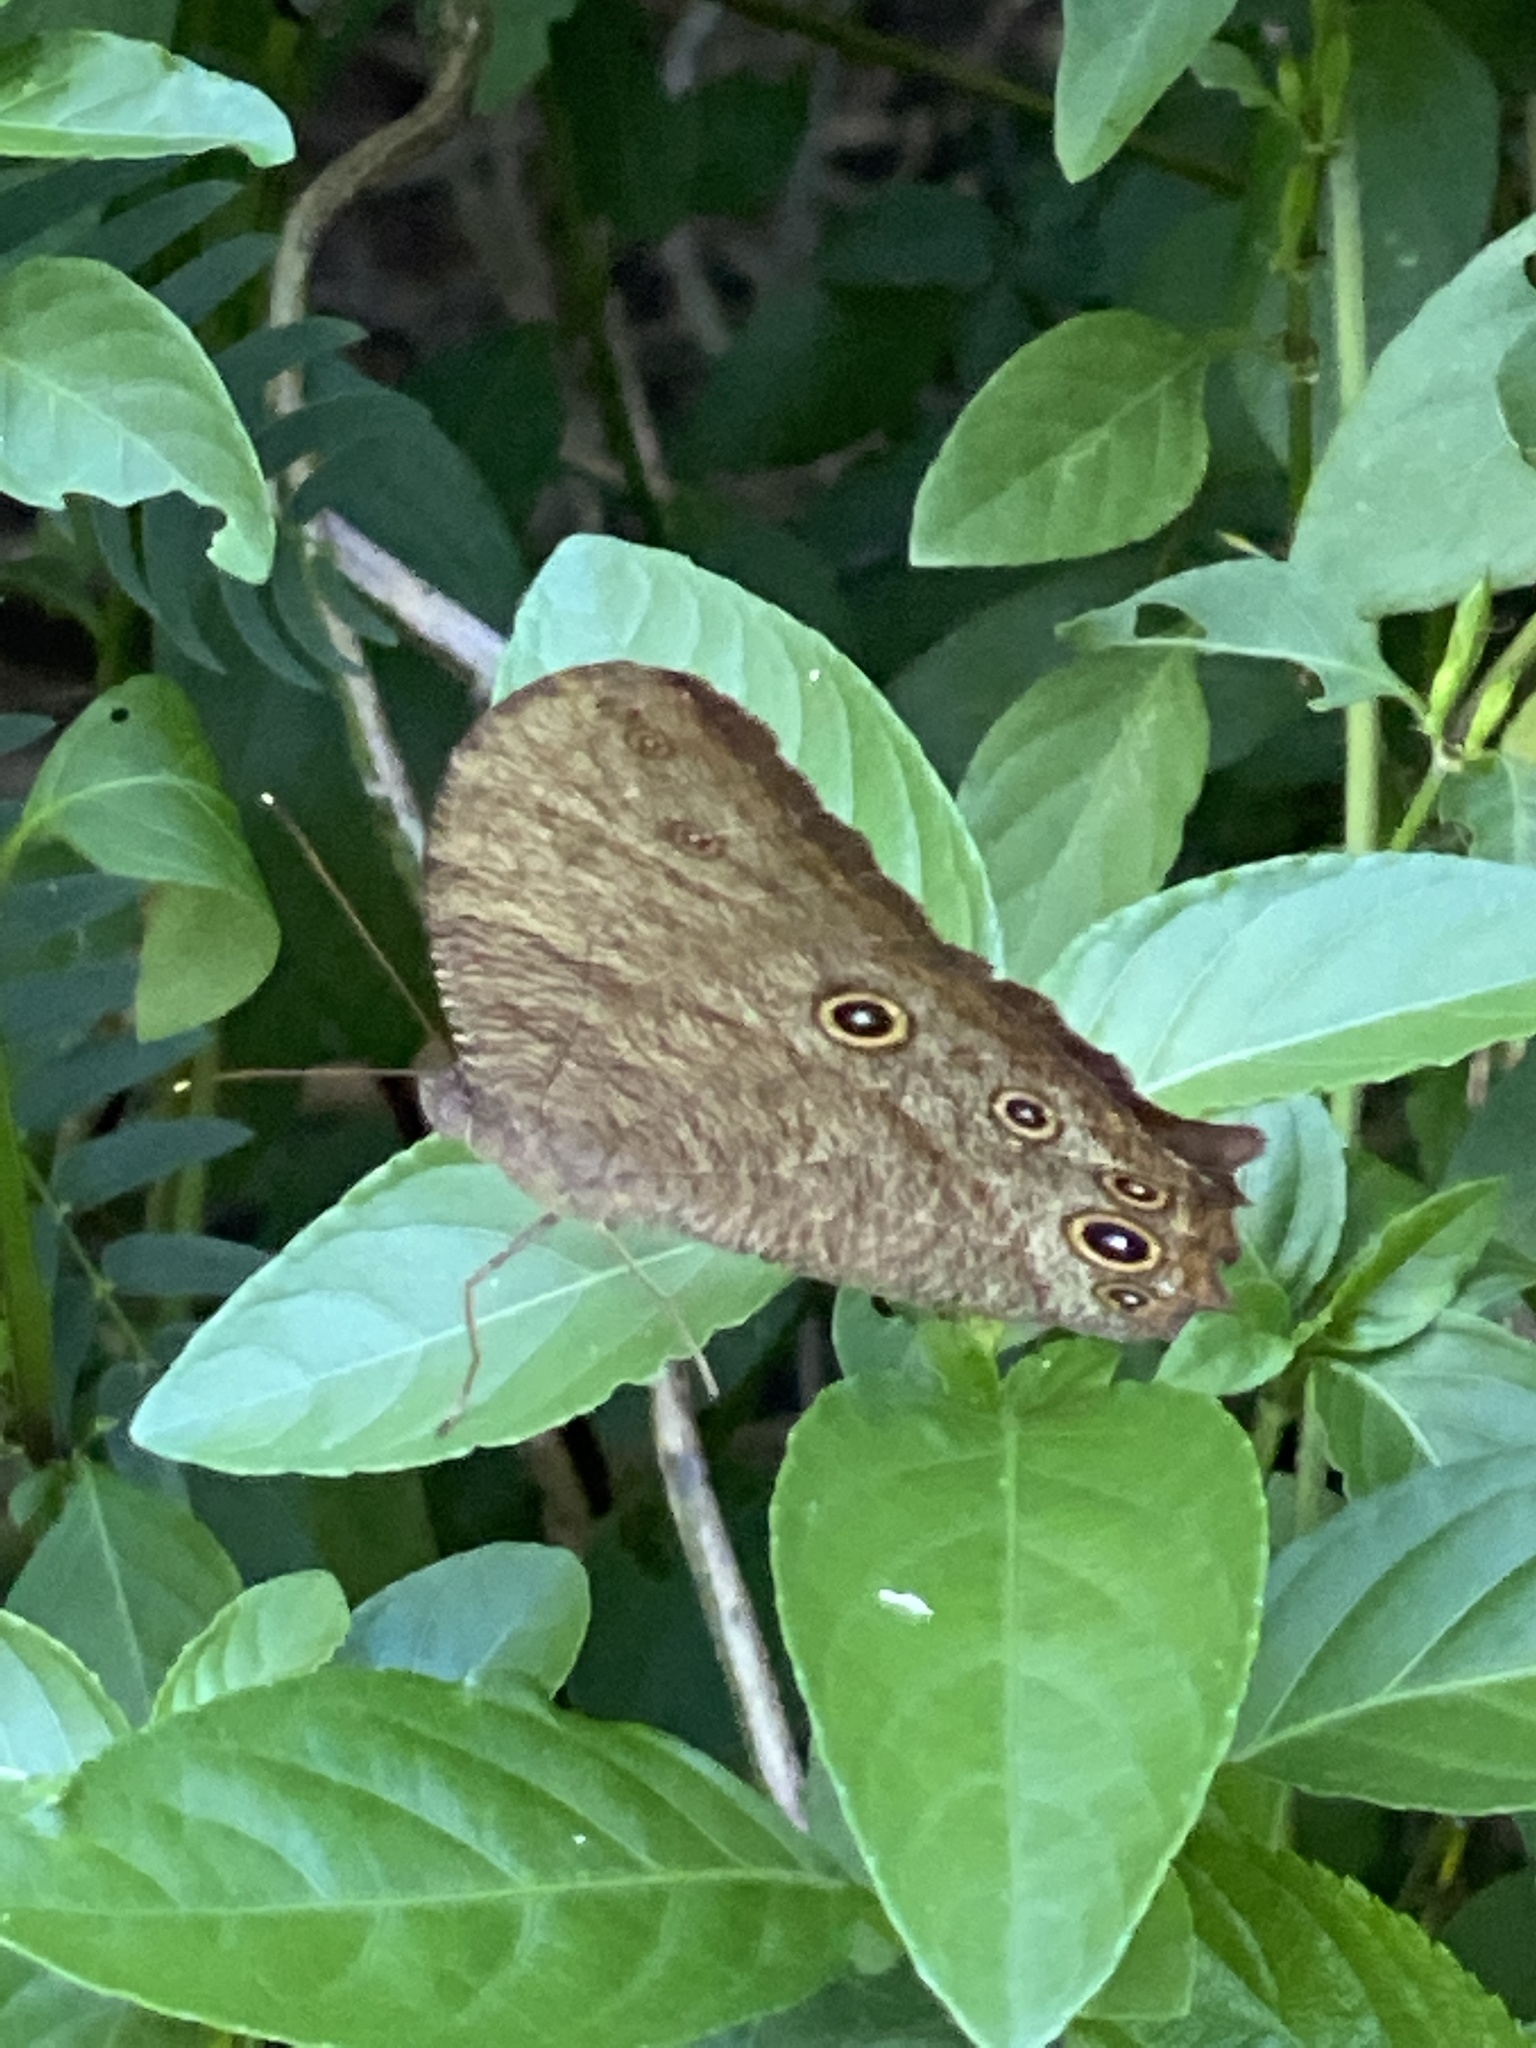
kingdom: Animalia
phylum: Arthropoda
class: Insecta
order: Lepidoptera
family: Nymphalidae
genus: Melanitis
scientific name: Melanitis leda
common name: Twilight brown
